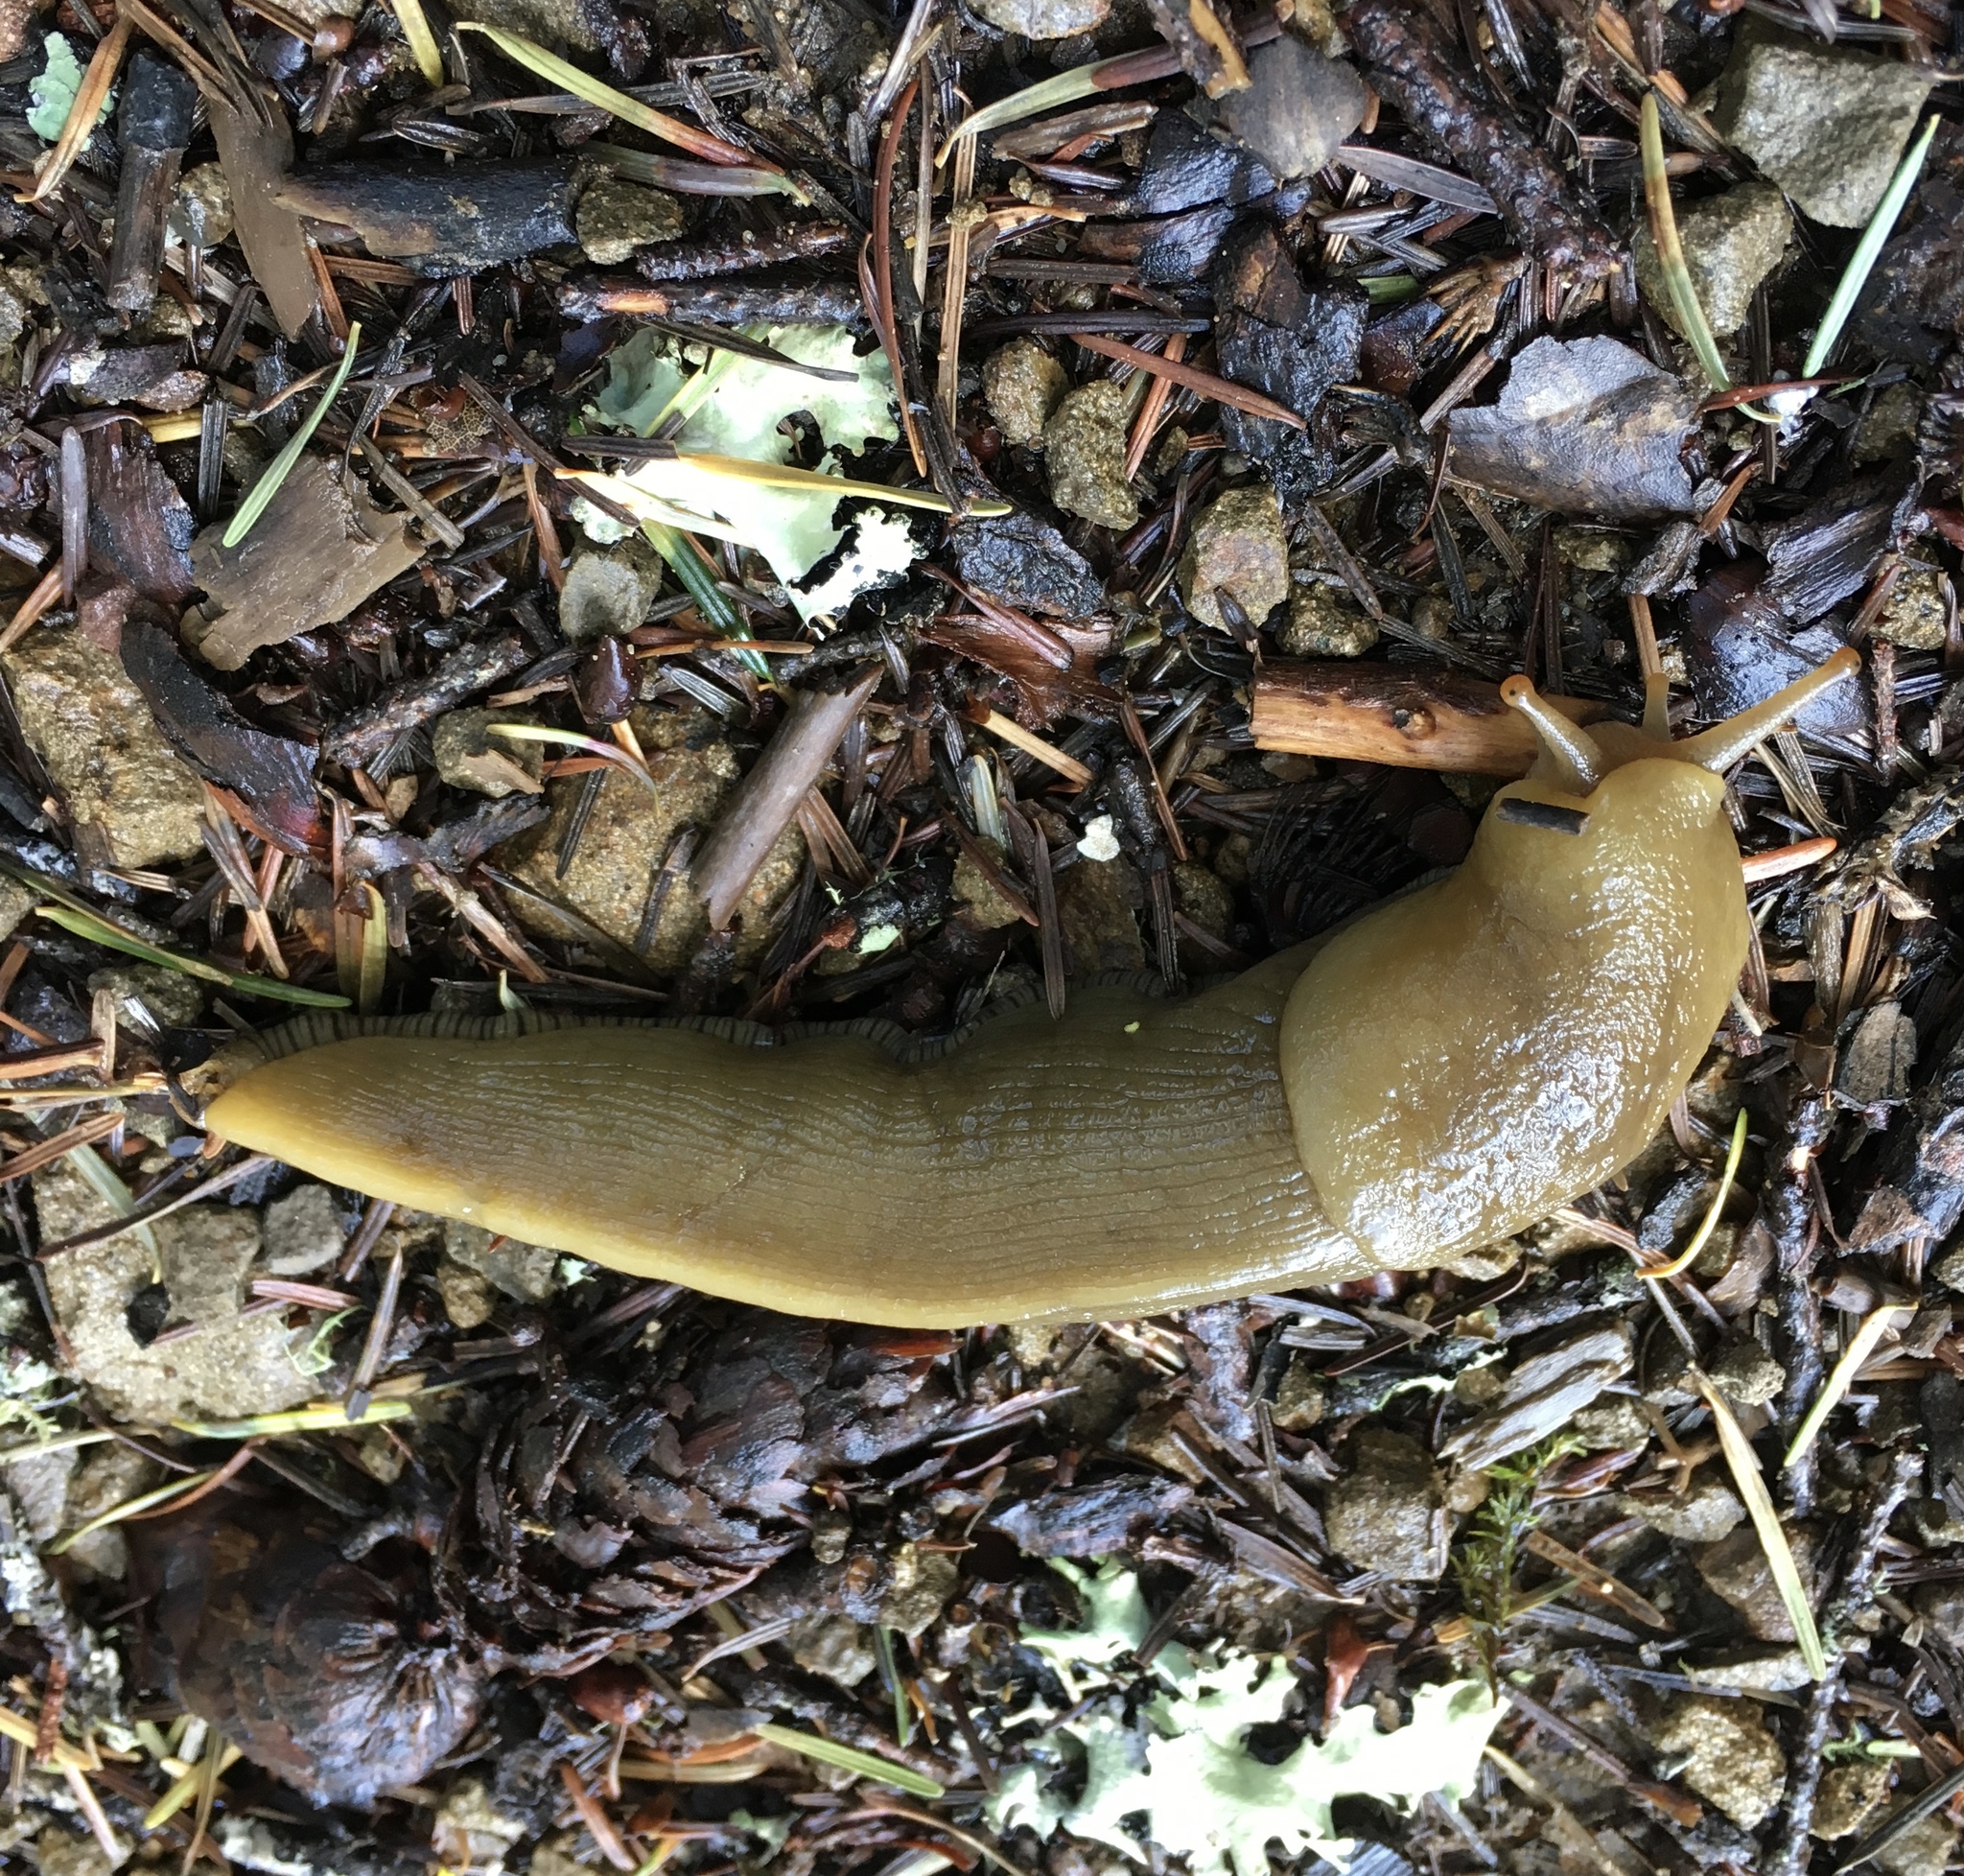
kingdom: Animalia
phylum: Mollusca
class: Gastropoda
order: Stylommatophora
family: Ariolimacidae
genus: Ariolimax
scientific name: Ariolimax buttoni
